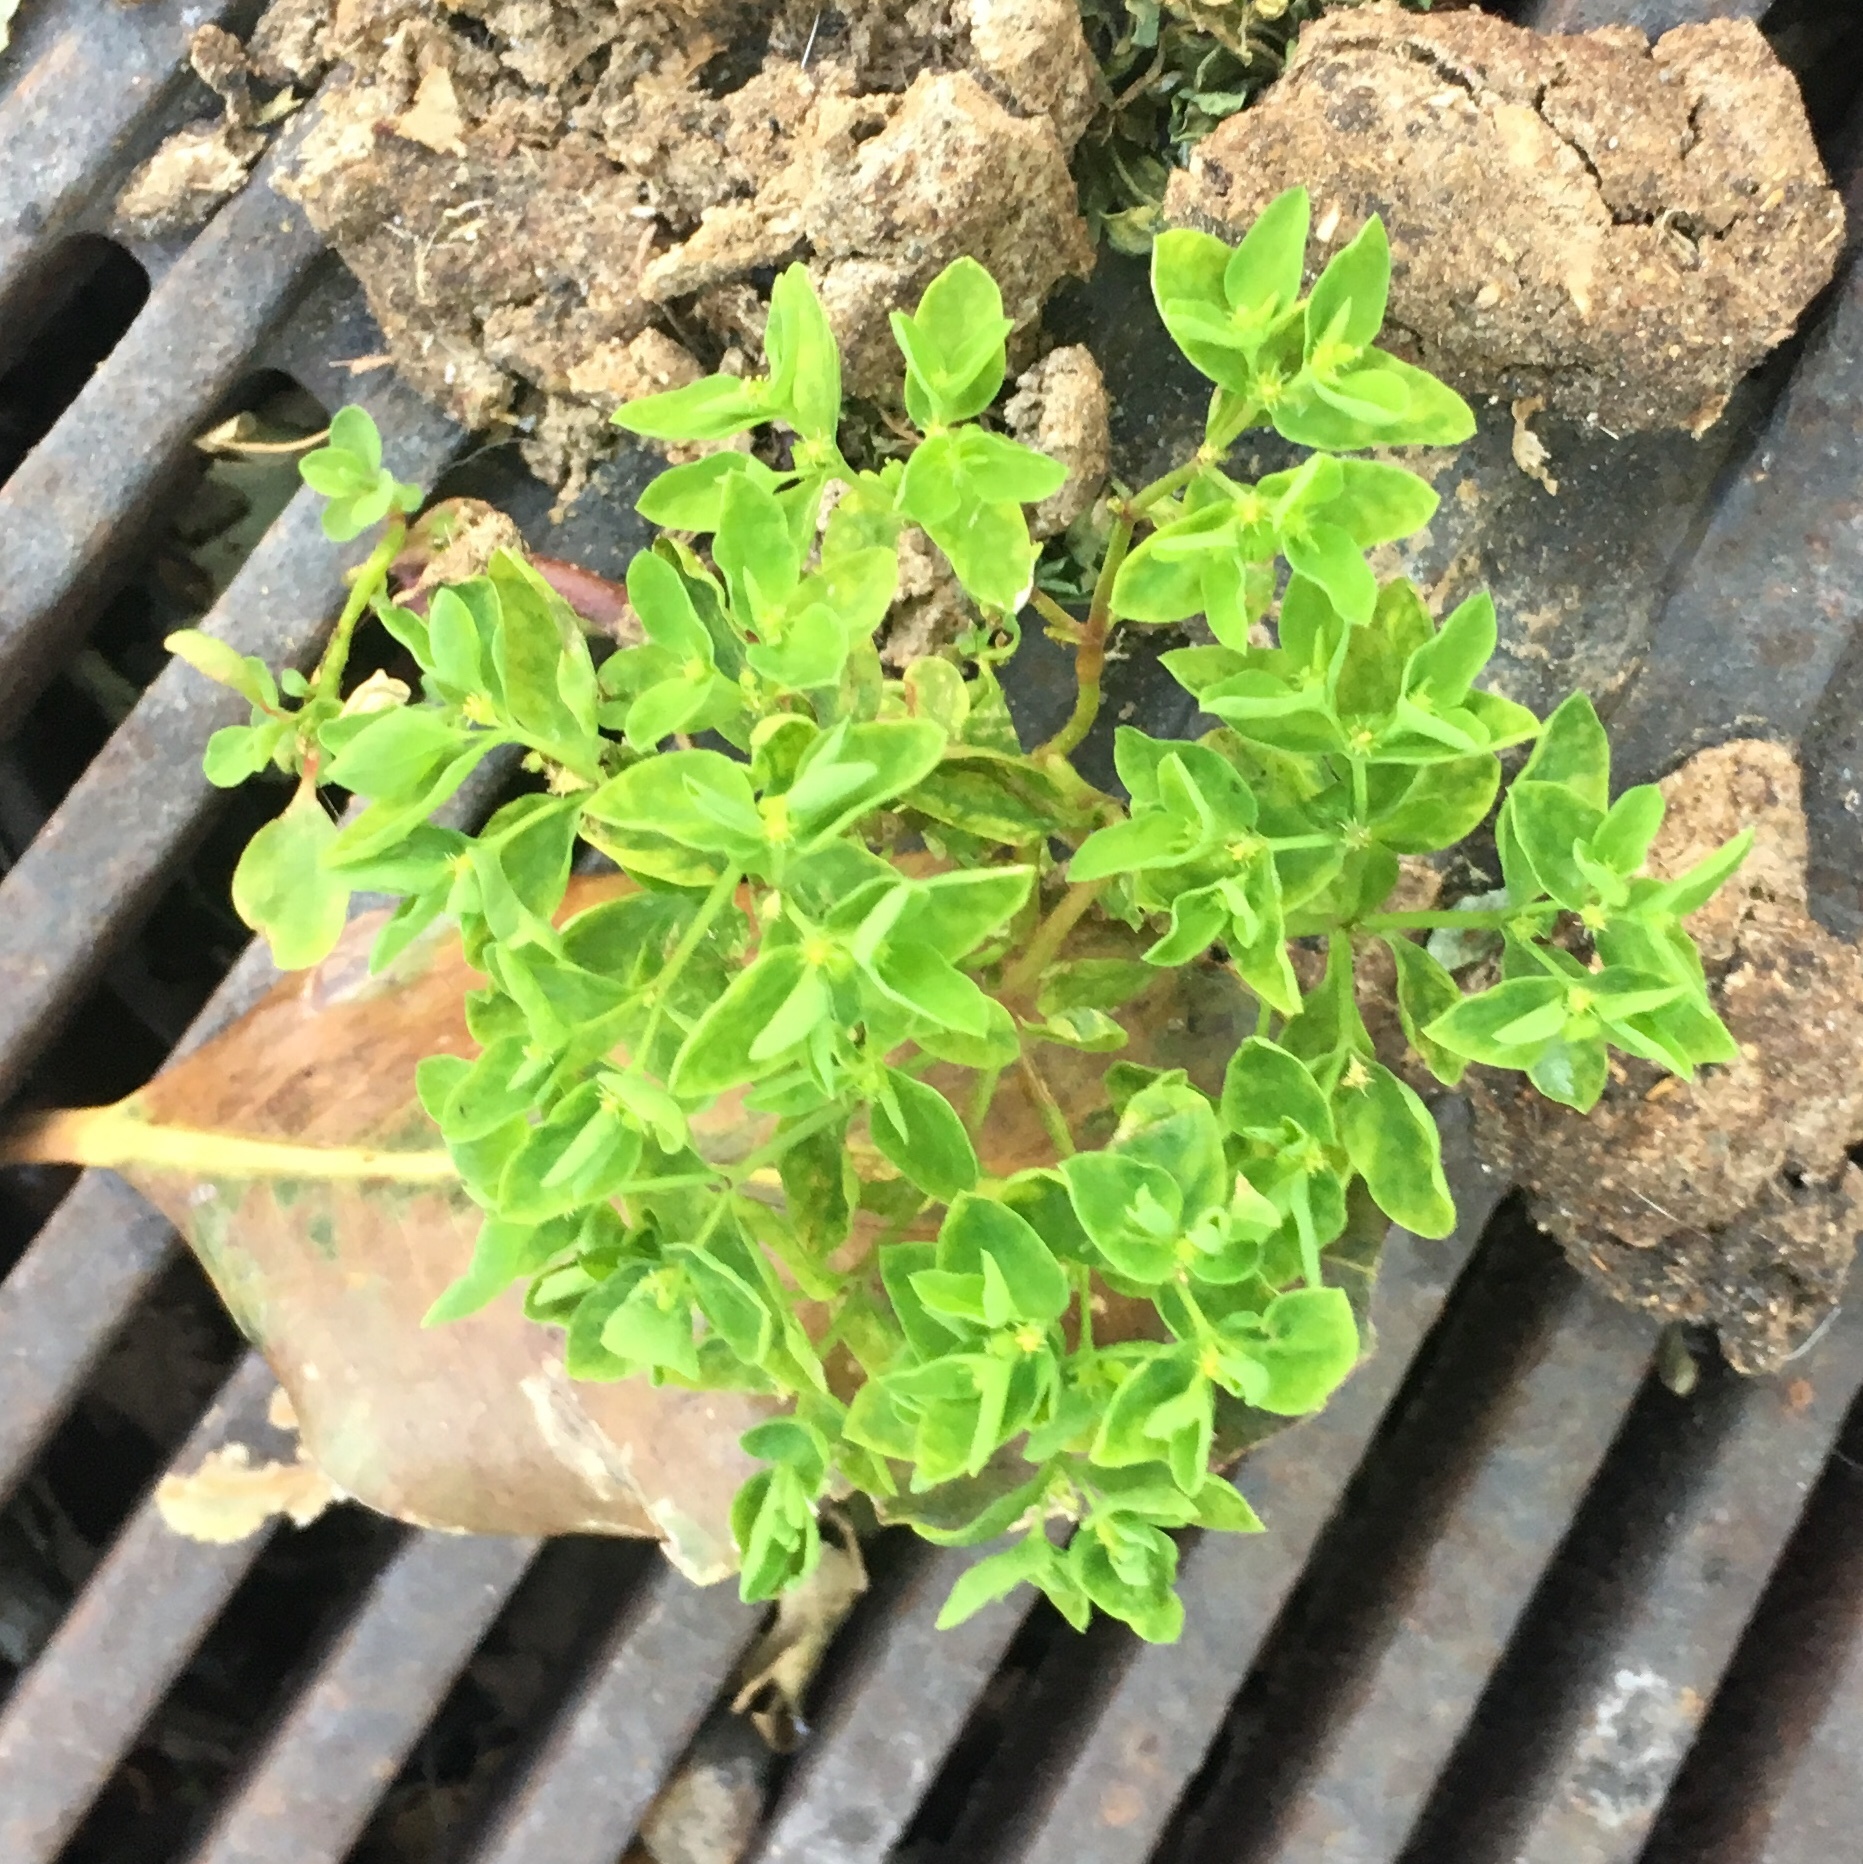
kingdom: Plantae
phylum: Tracheophyta
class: Magnoliopsida
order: Malpighiales
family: Euphorbiaceae
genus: Euphorbia
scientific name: Euphorbia peplus
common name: Petty spurge
